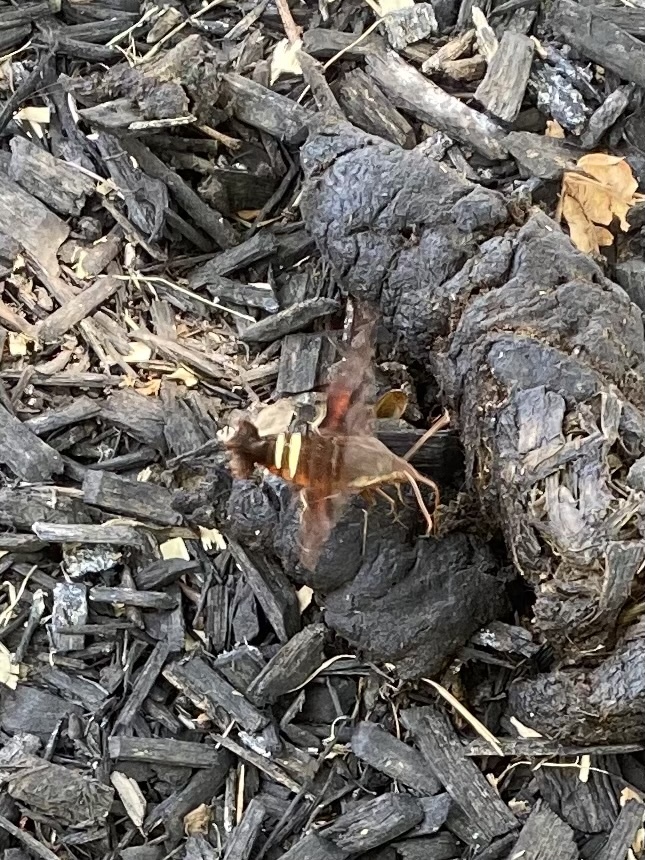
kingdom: Animalia
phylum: Arthropoda
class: Insecta
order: Lepidoptera
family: Sphingidae
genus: Amphion
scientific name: Amphion floridensis
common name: Nessus sphinx
